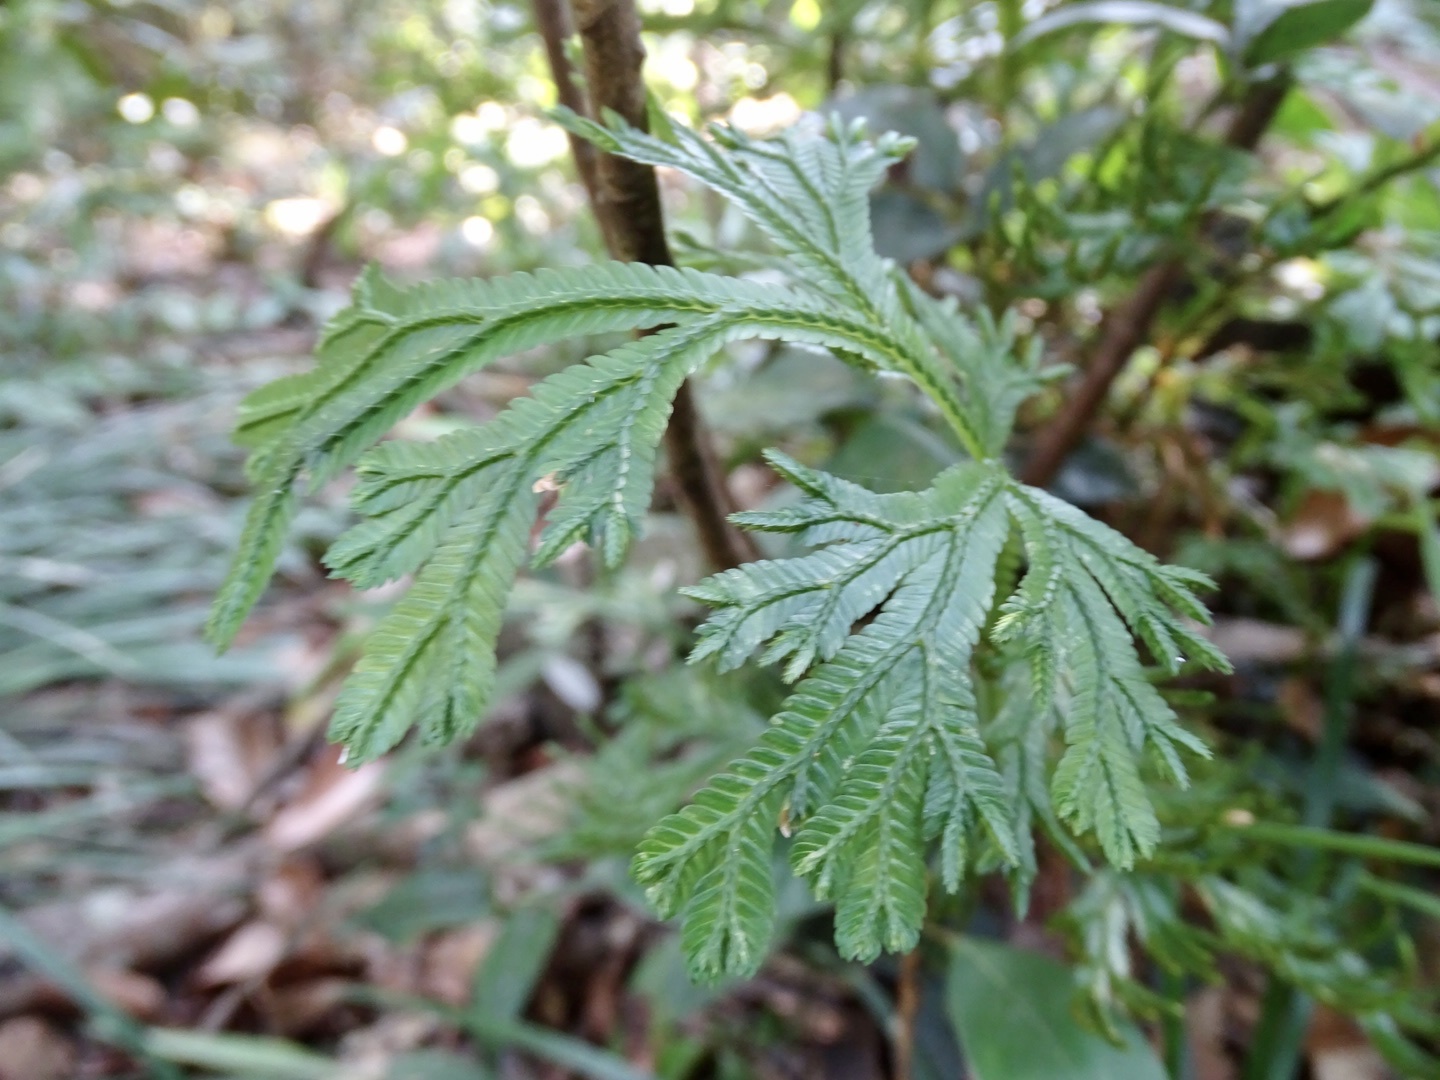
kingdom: Plantae
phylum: Tracheophyta
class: Lycopodiopsida
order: Selaginellales
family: Selaginellaceae
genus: Selaginella
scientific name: Selaginella doederleinii
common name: Greater selaginella
